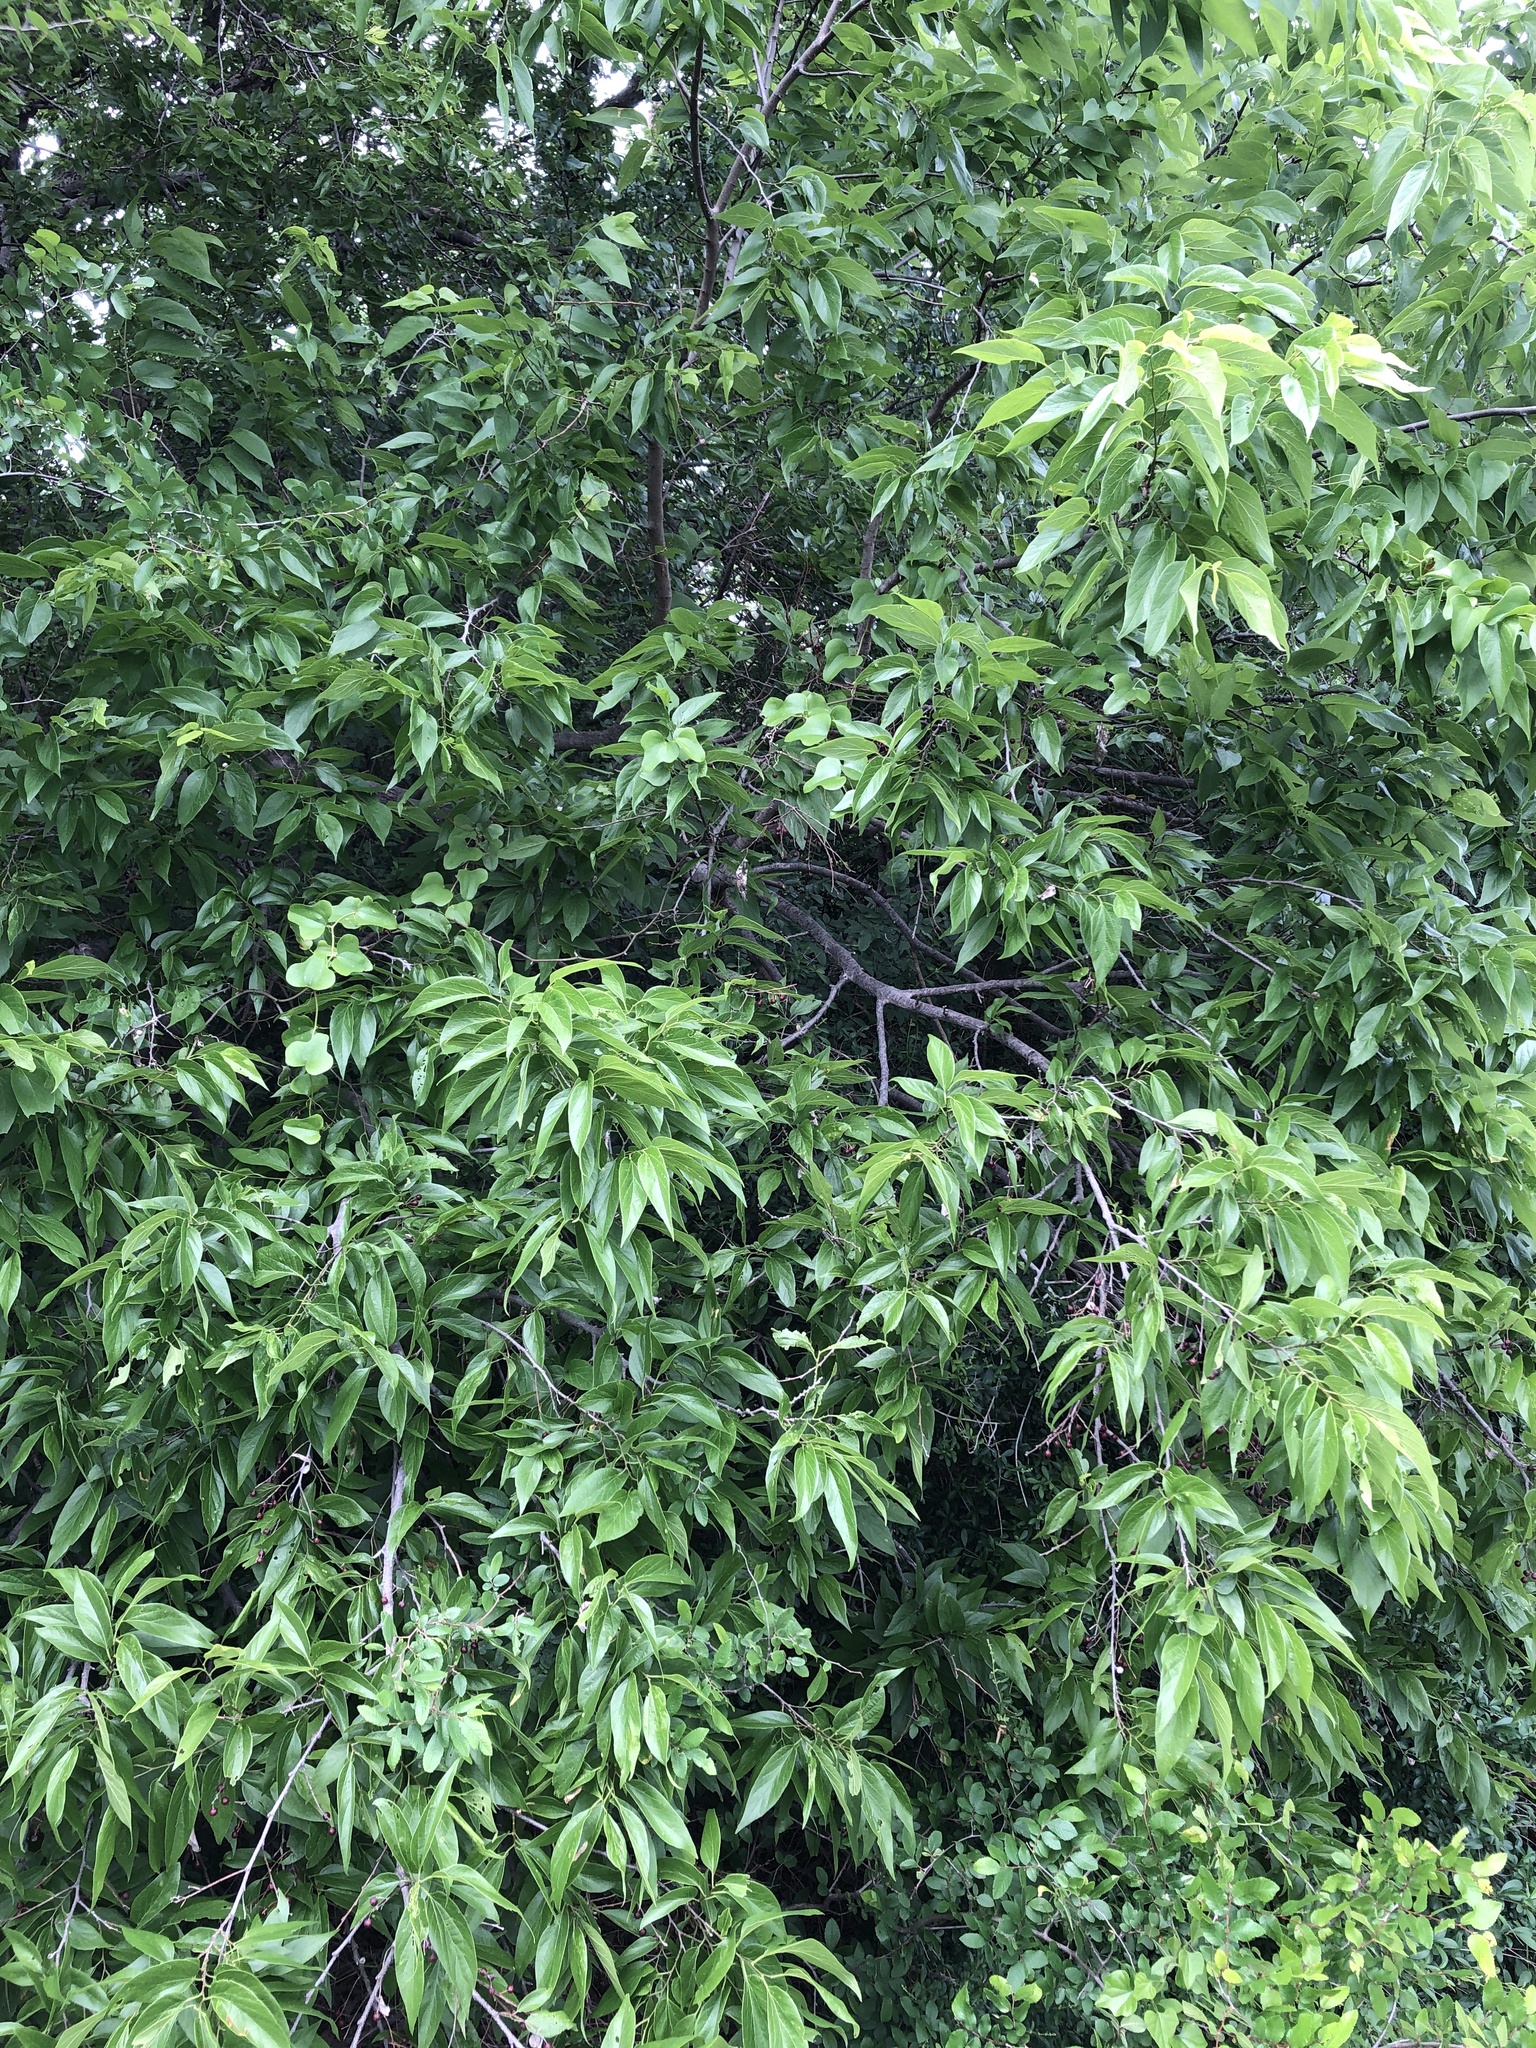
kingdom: Plantae
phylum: Tracheophyta
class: Magnoliopsida
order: Rosales
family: Cannabaceae
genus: Celtis
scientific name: Celtis laevigata
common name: Sugarberry
